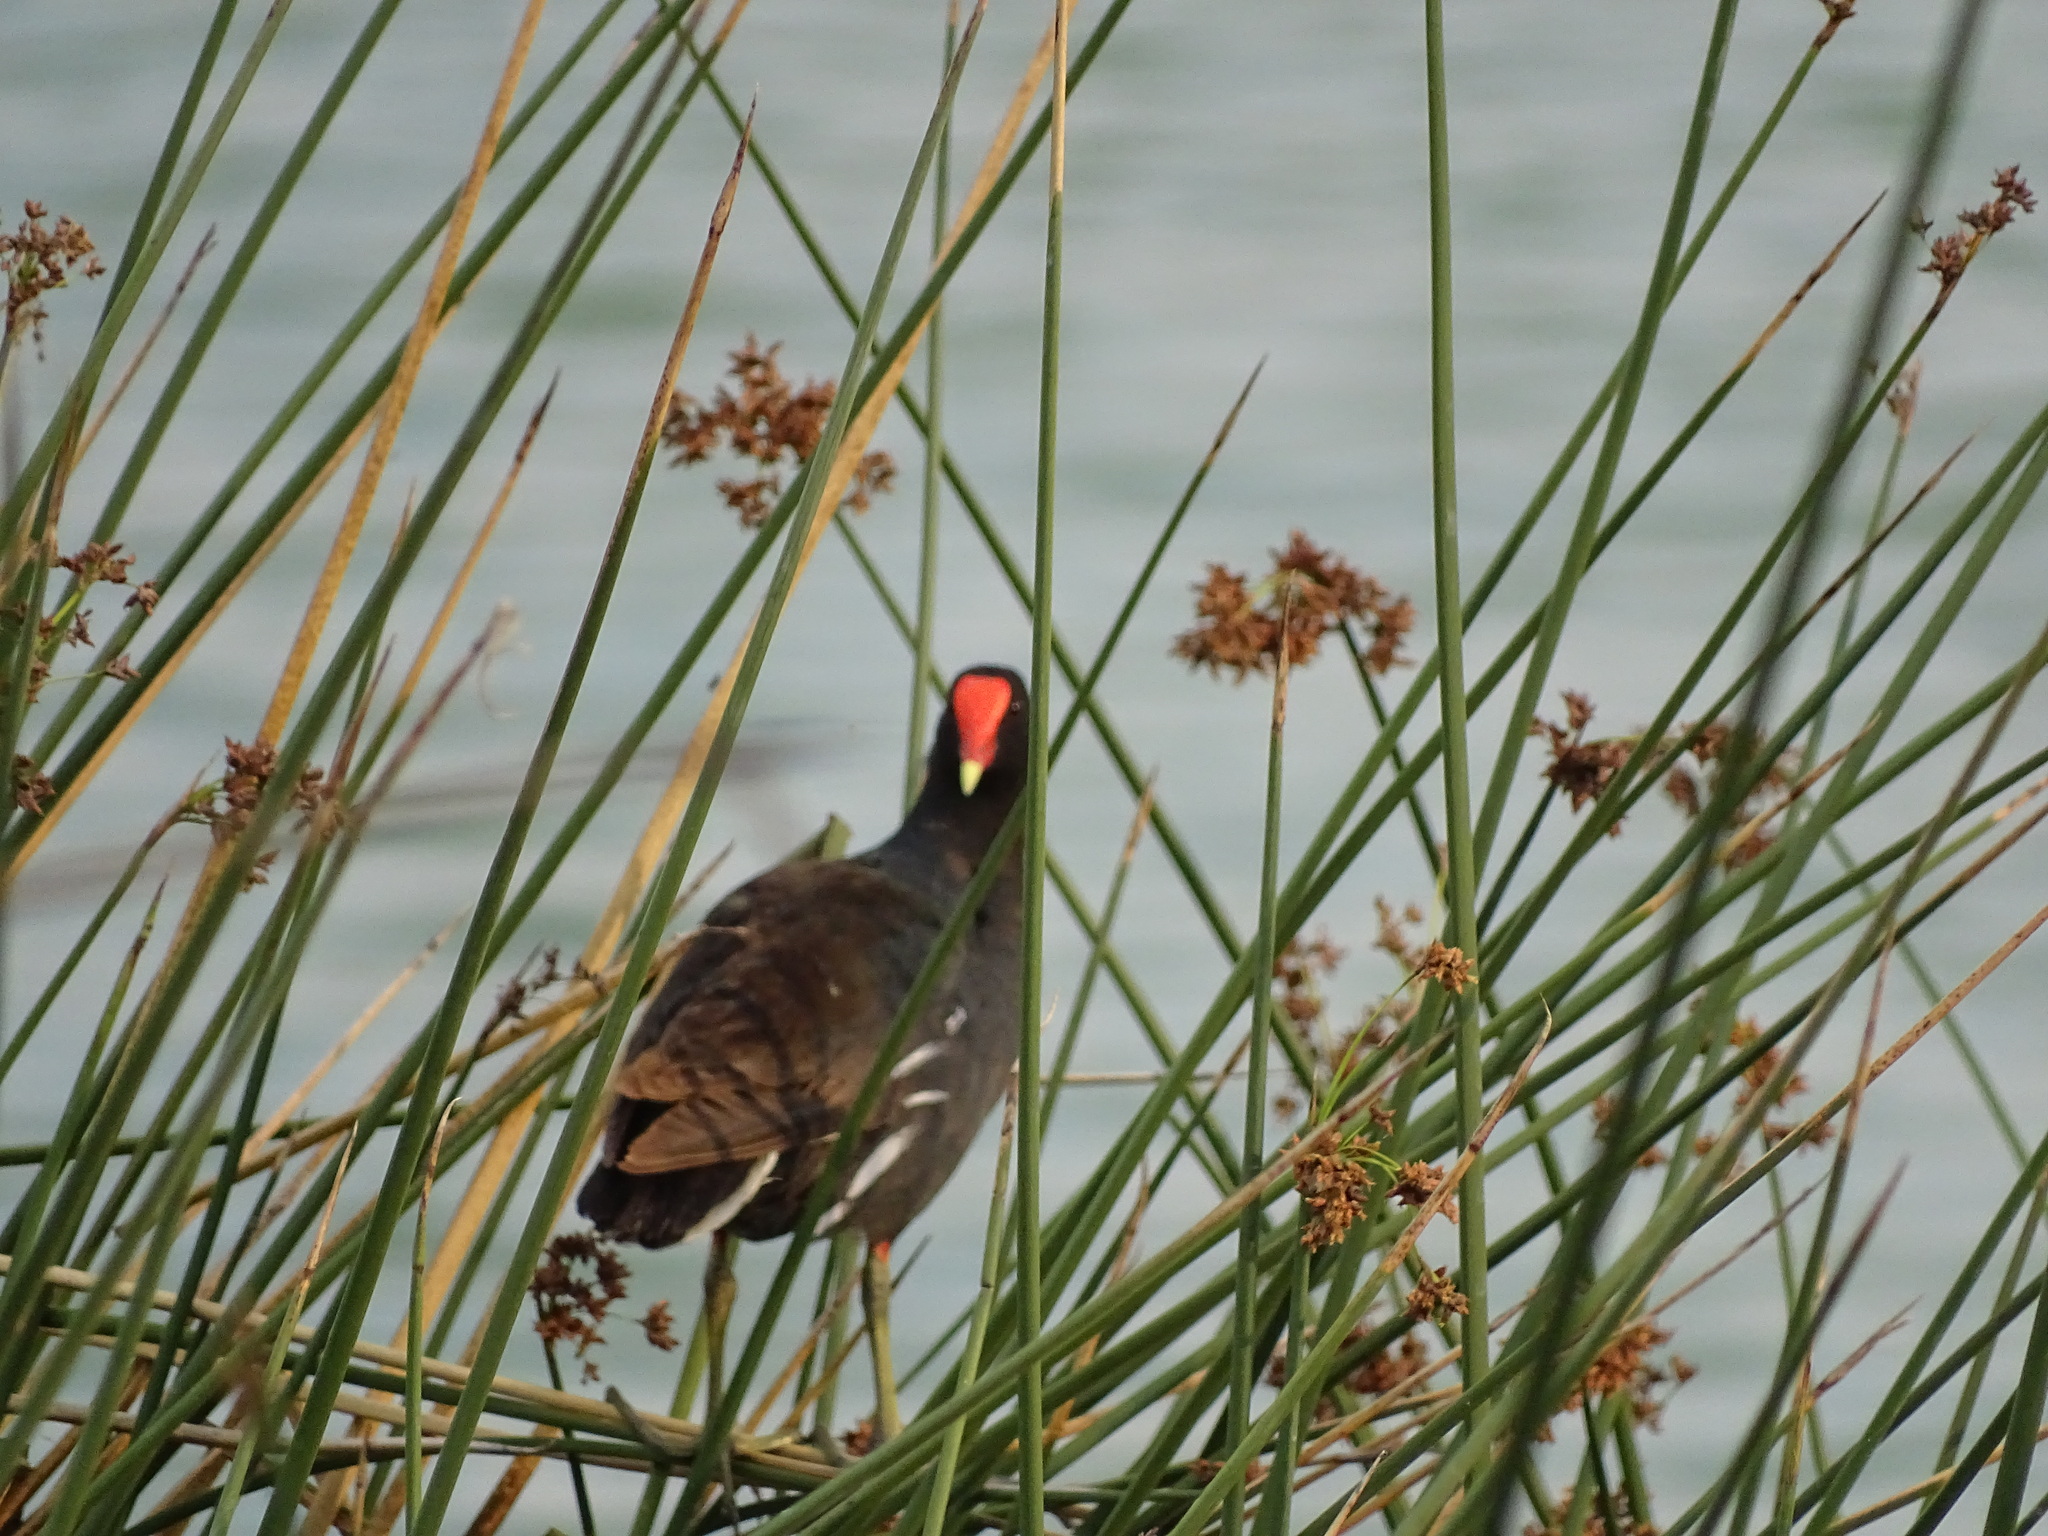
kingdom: Animalia
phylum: Chordata
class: Aves
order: Gruiformes
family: Rallidae
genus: Gallinula
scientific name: Gallinula chloropus
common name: Common moorhen
